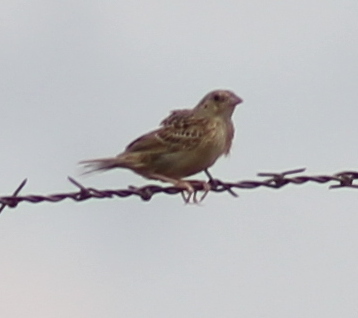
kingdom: Animalia
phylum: Chordata
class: Aves
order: Passeriformes
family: Passerellidae
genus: Ammodramus
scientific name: Ammodramus savannarum
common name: Grasshopper sparrow
